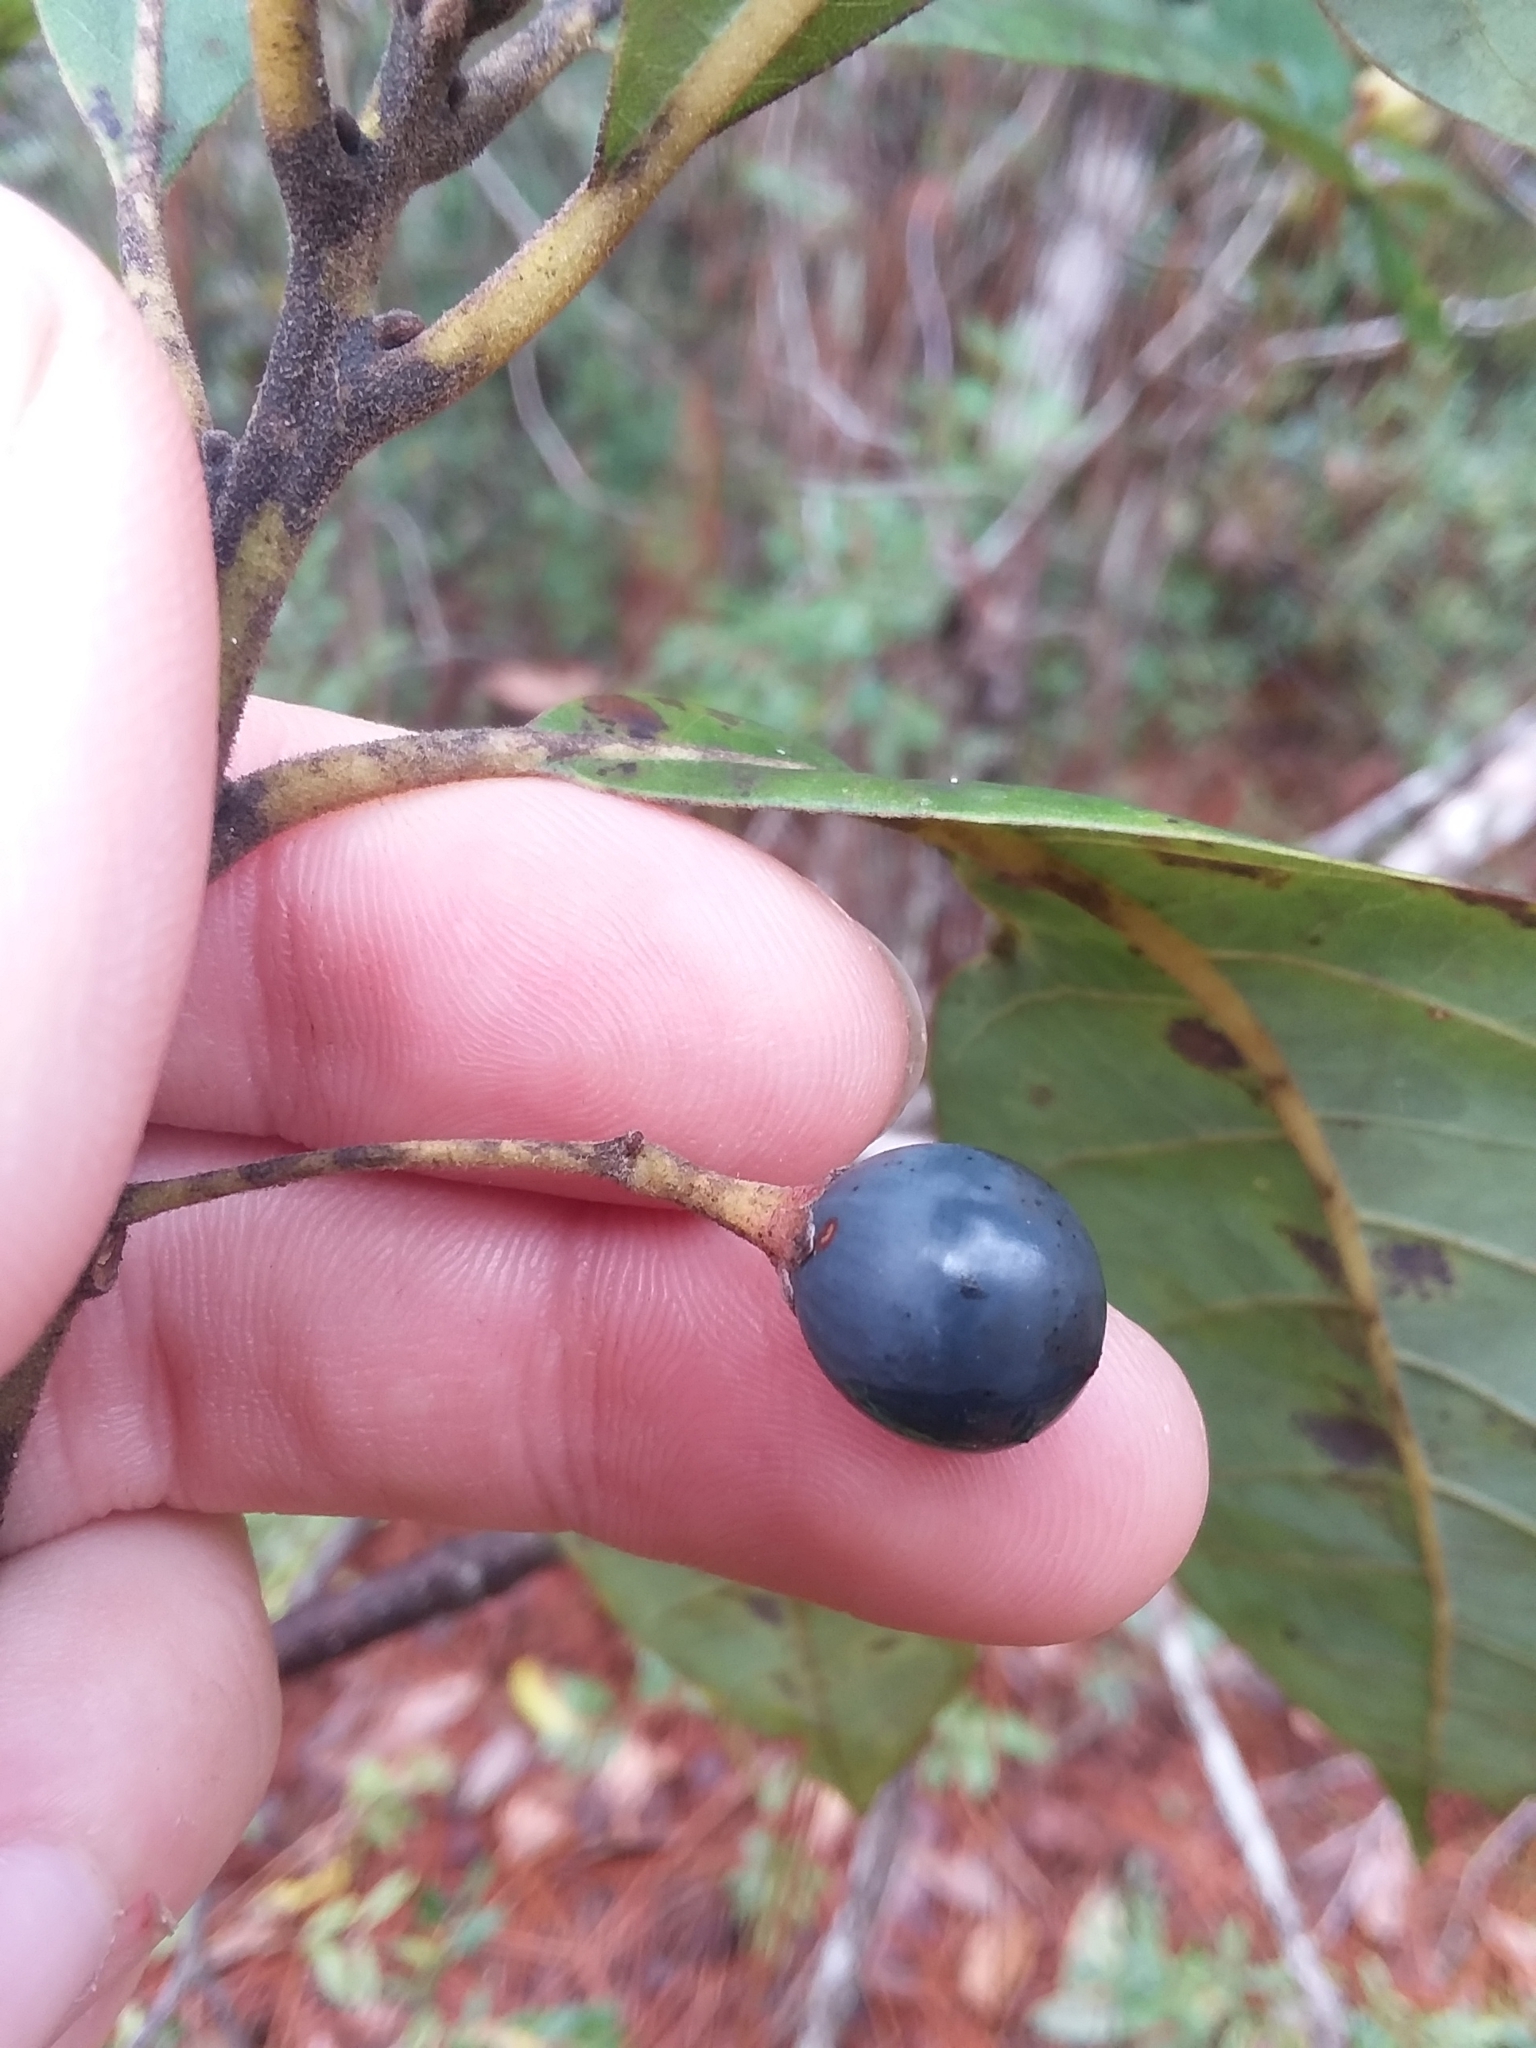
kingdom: Plantae
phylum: Tracheophyta
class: Magnoliopsida
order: Laurales
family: Lauraceae
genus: Persea
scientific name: Persea palustris
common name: Swampbay
